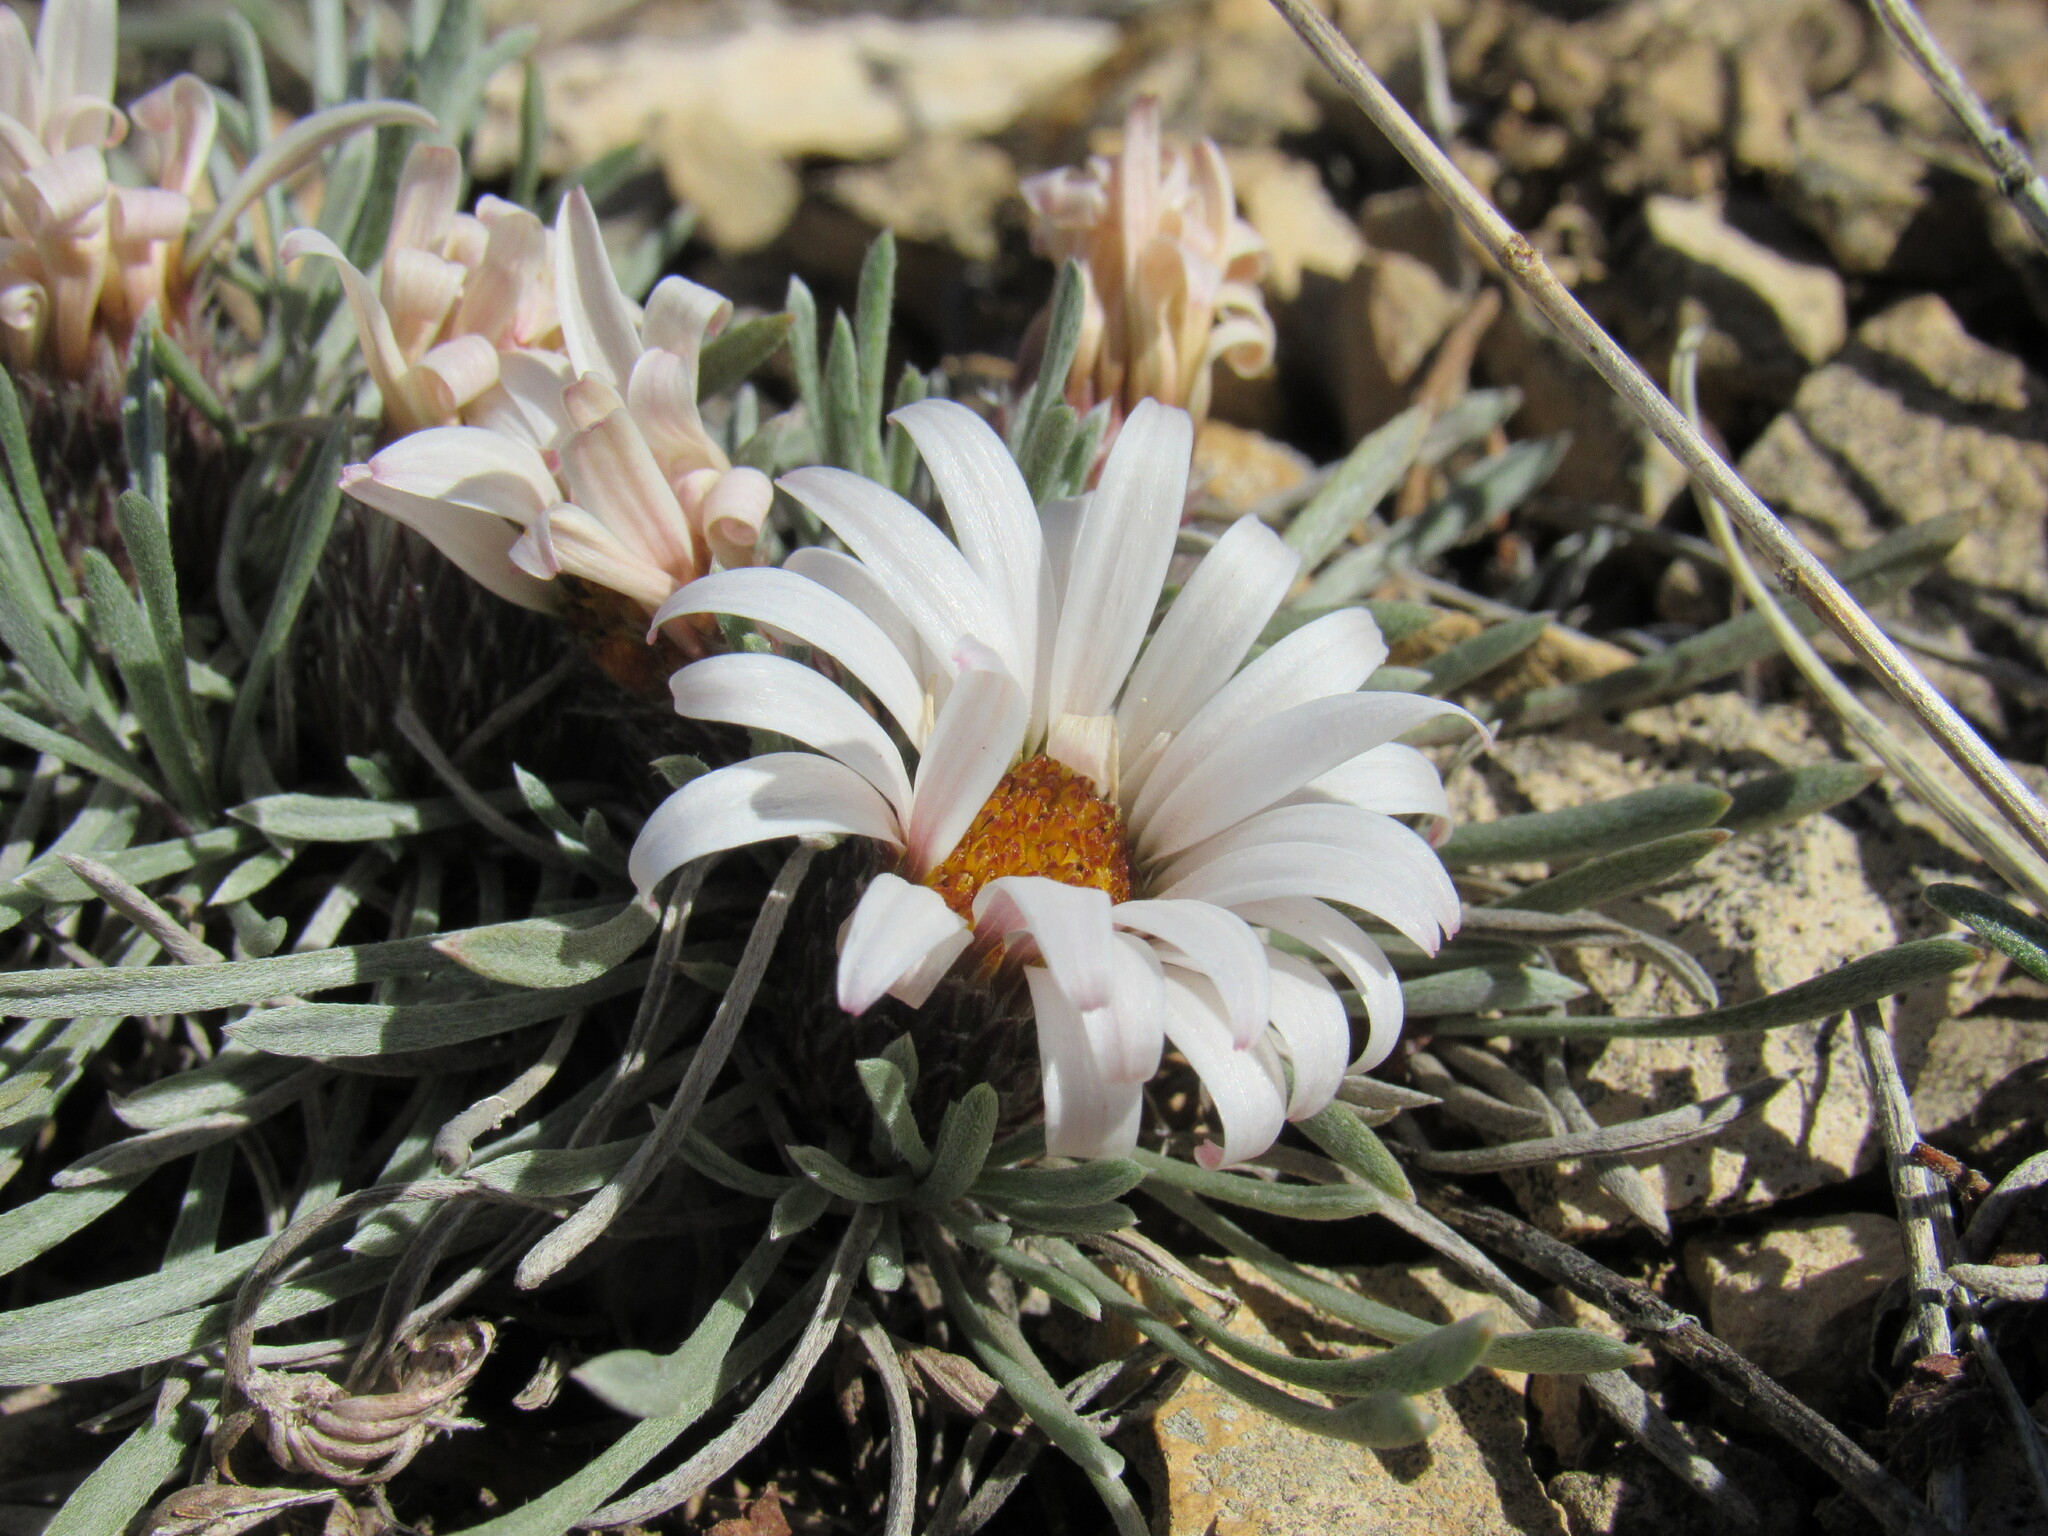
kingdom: Plantae
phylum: Tracheophyta
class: Magnoliopsida
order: Asterales
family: Asteraceae
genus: Townsendia
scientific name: Townsendia hookeri
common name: Hooker's townsend daisy
